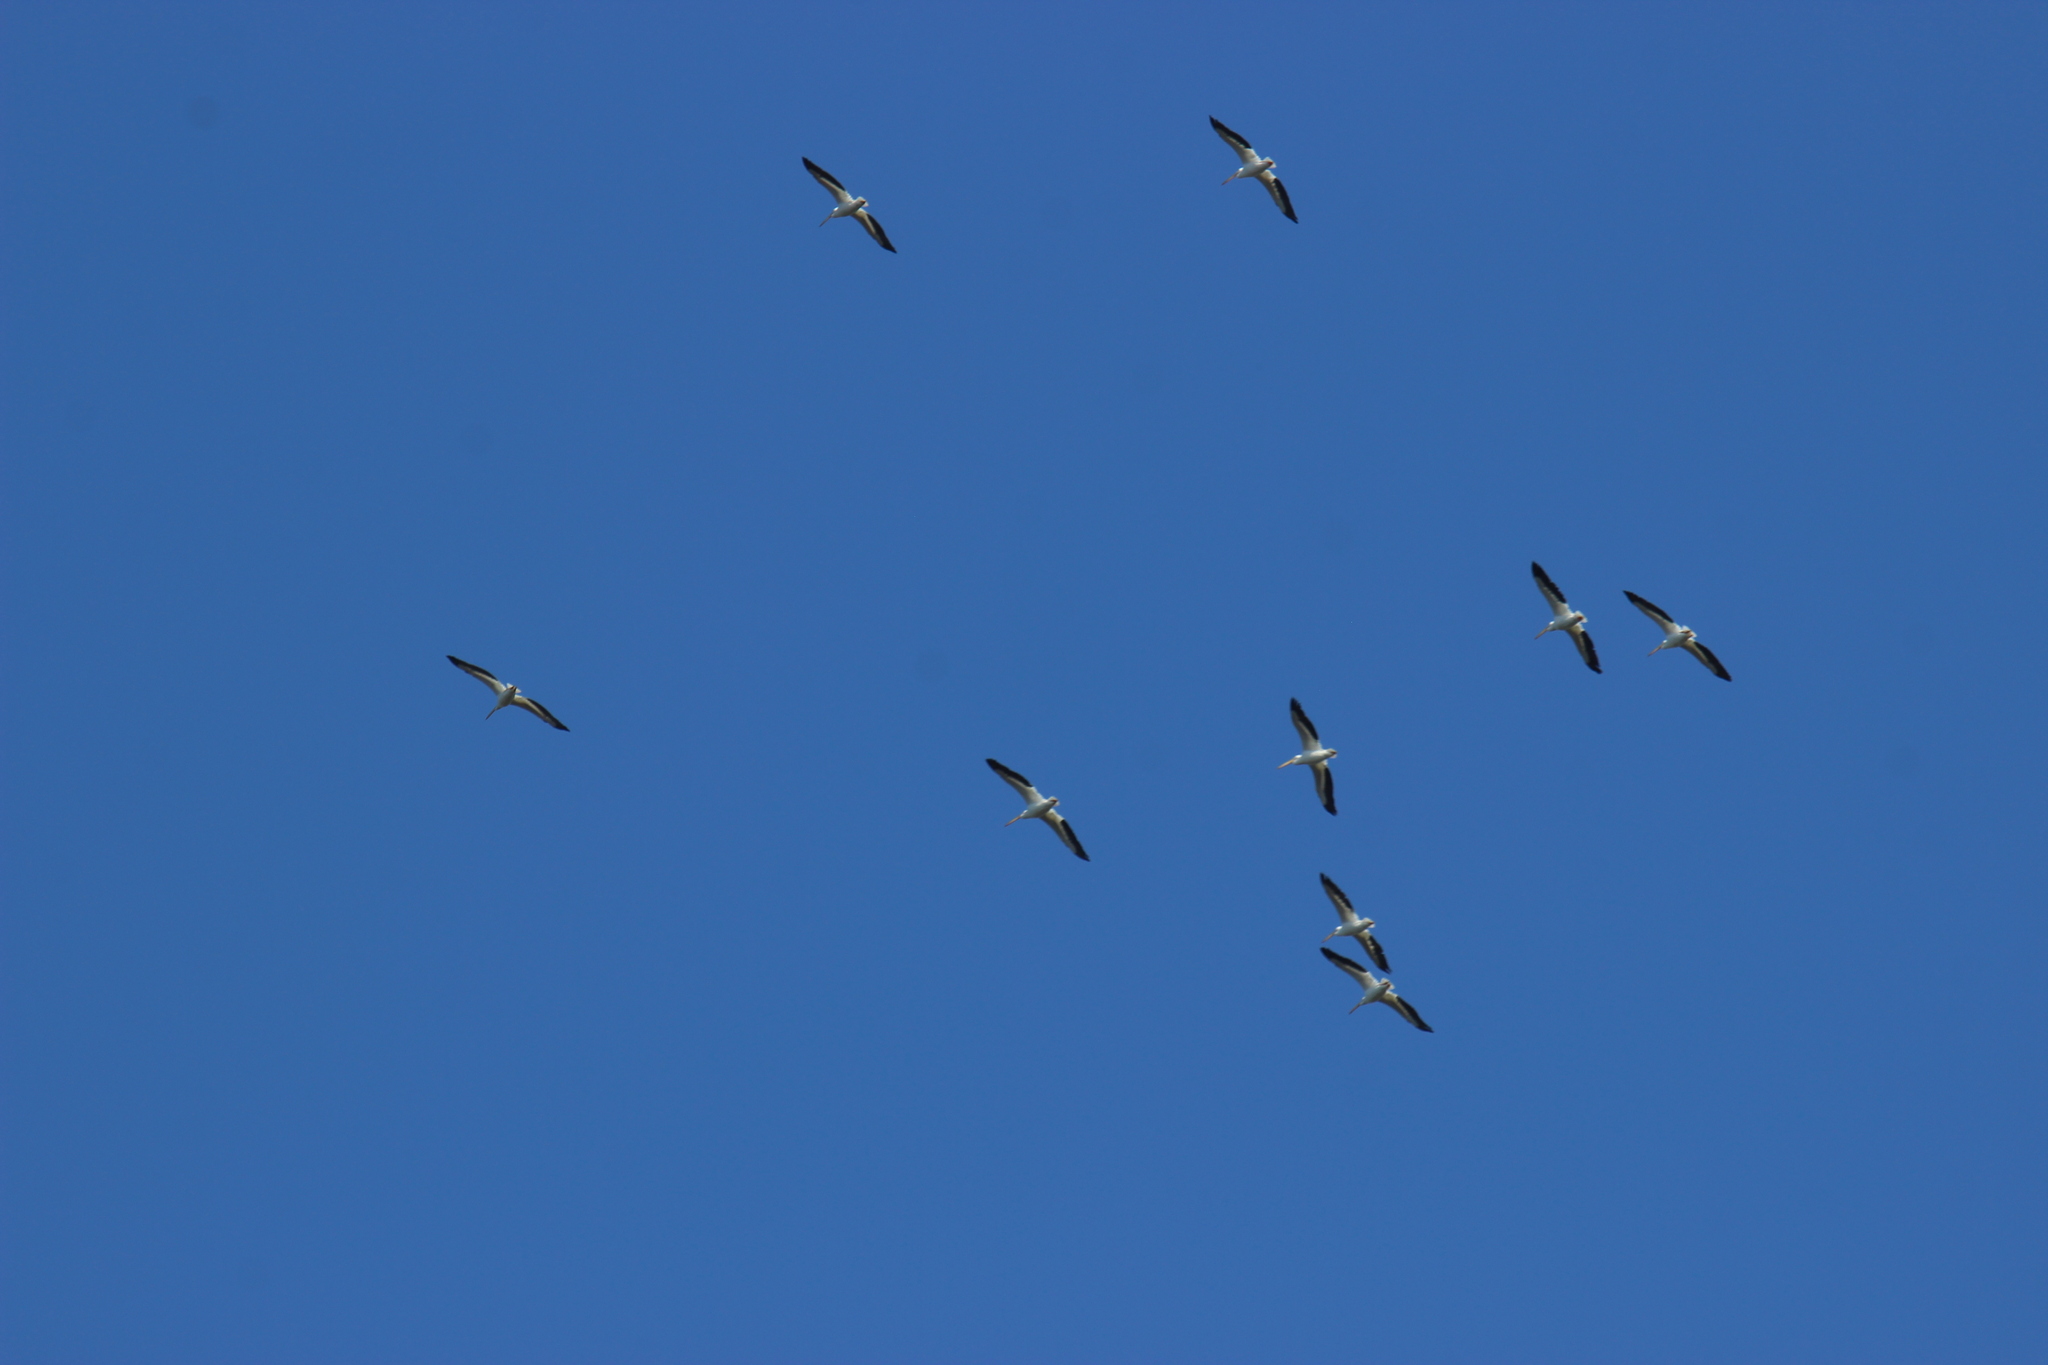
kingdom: Animalia
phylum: Chordata
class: Aves
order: Pelecaniformes
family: Pelecanidae
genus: Pelecanus
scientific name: Pelecanus erythrorhynchos
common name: American white pelican
